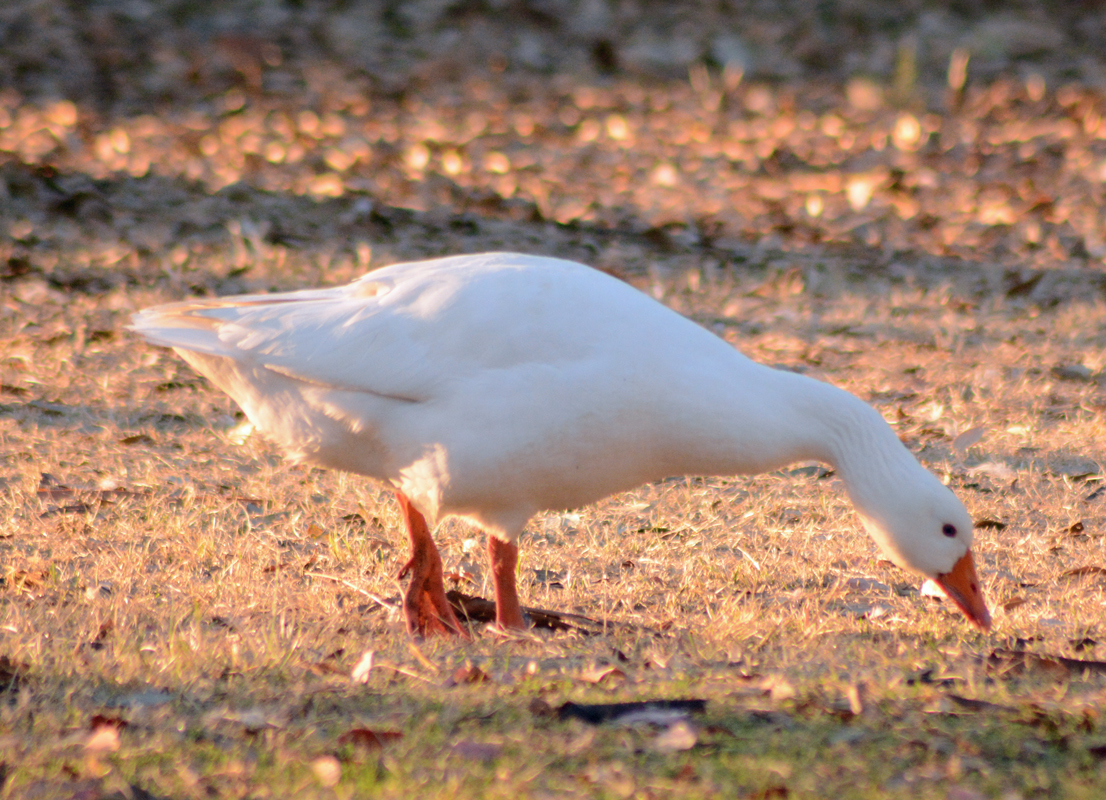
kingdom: Animalia
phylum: Chordata
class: Aves
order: Anseriformes
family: Anatidae
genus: Anser
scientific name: Anser anser
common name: Greylag goose
